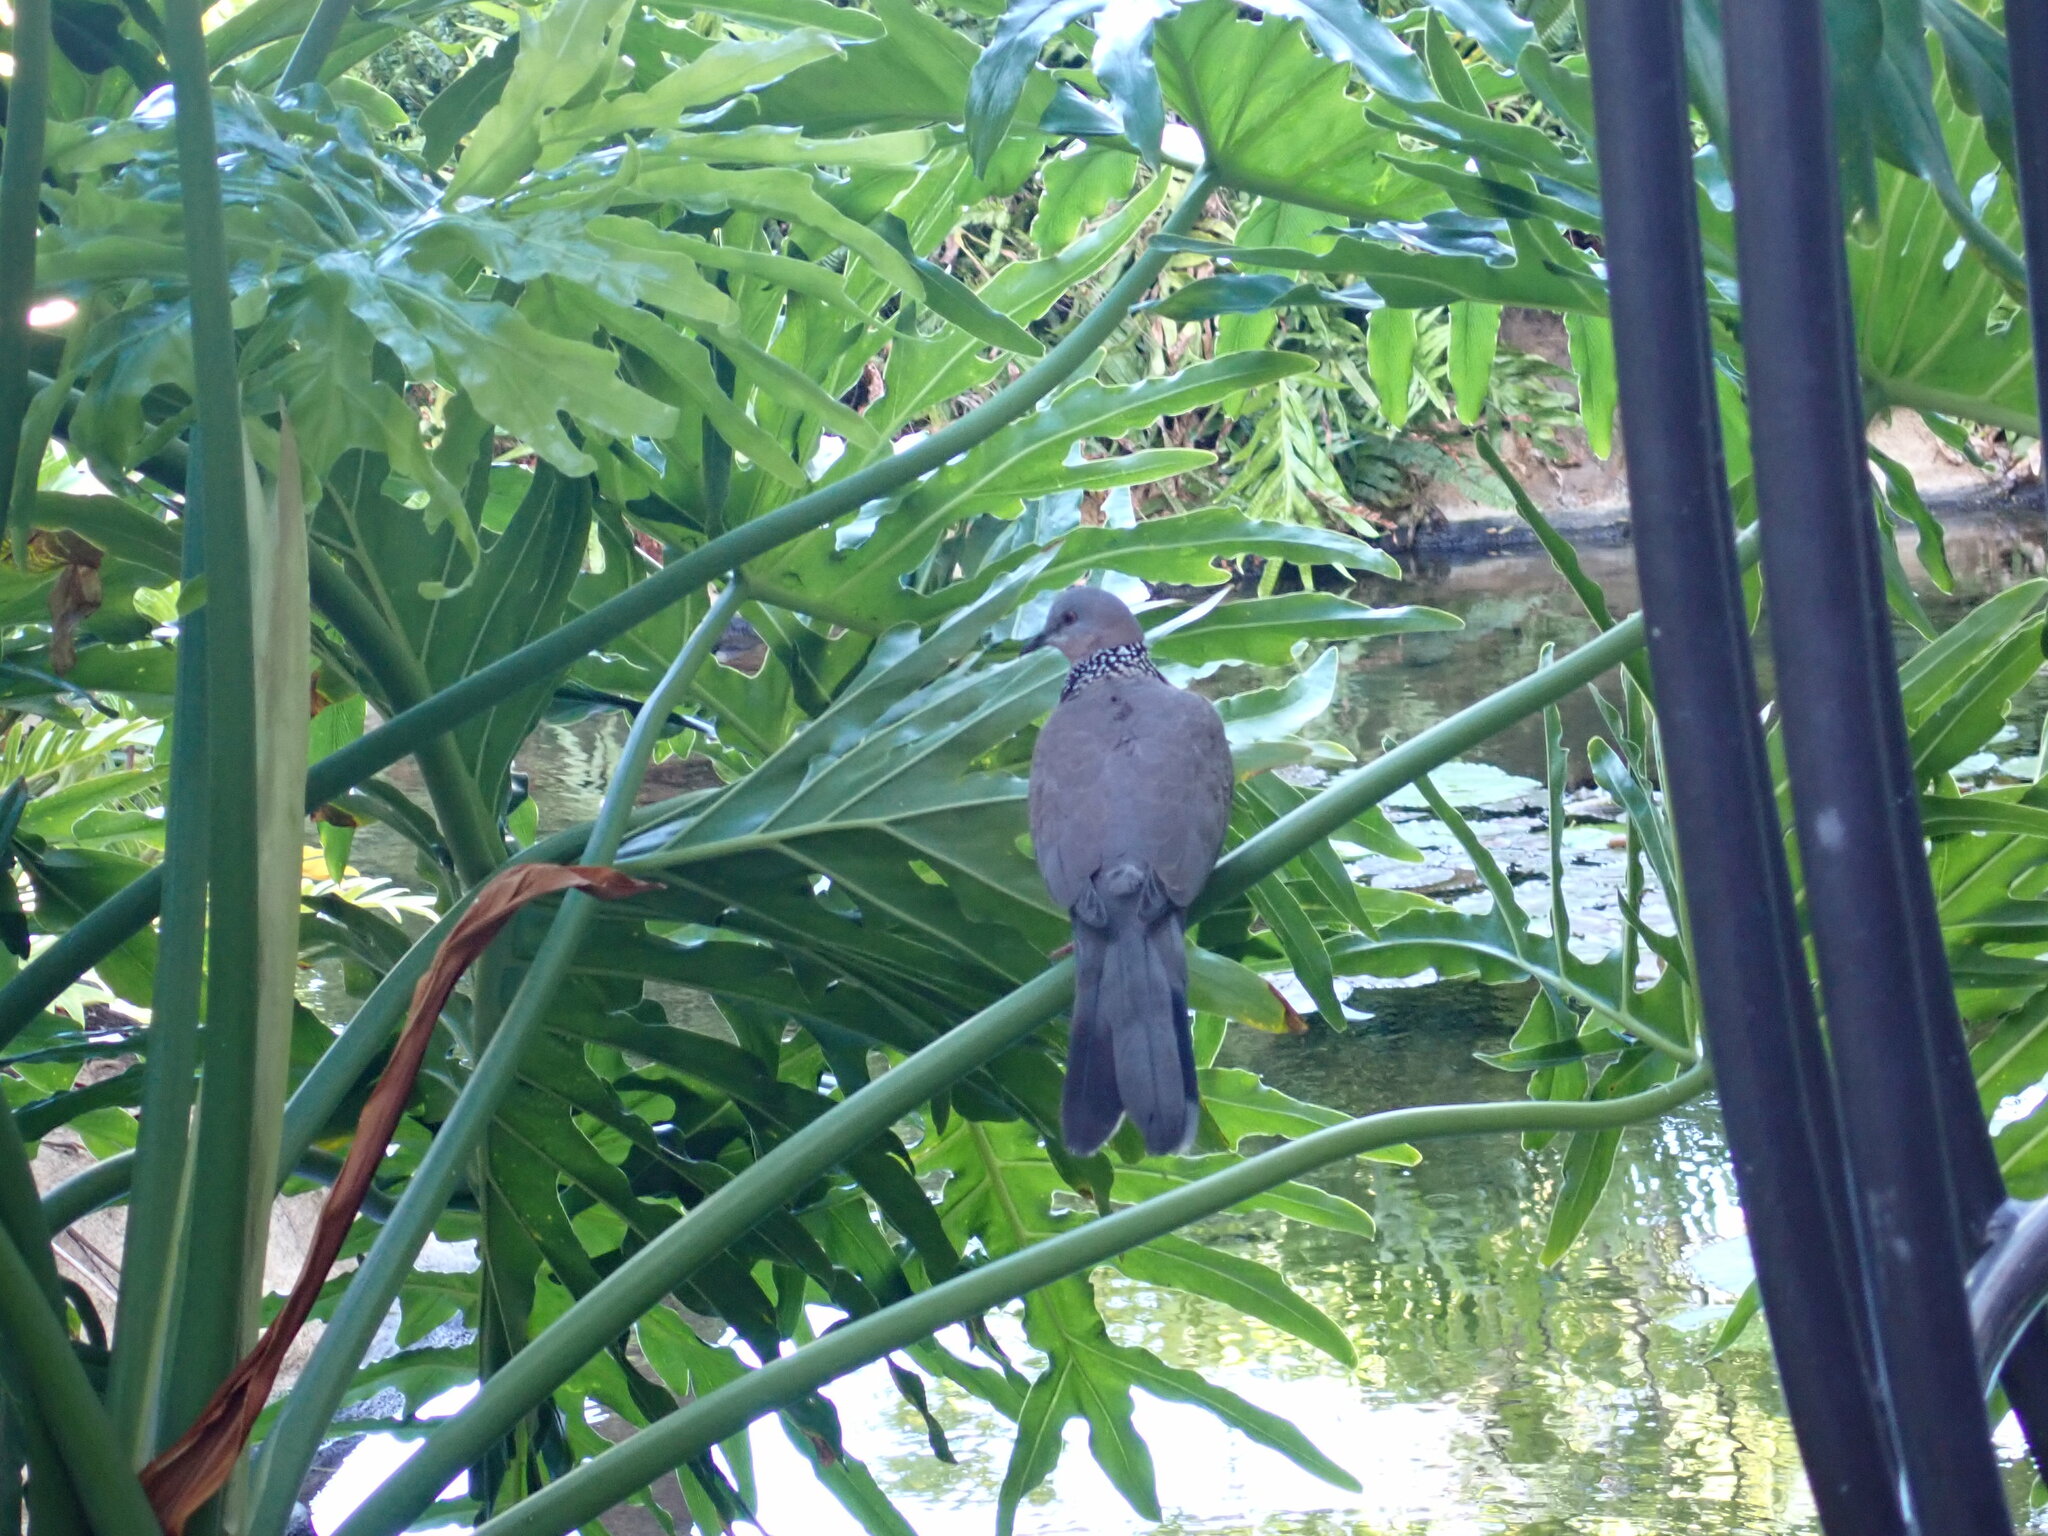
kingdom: Animalia
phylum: Chordata
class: Aves
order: Columbiformes
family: Columbidae
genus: Spilopelia
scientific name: Spilopelia chinensis
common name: Spotted dove
